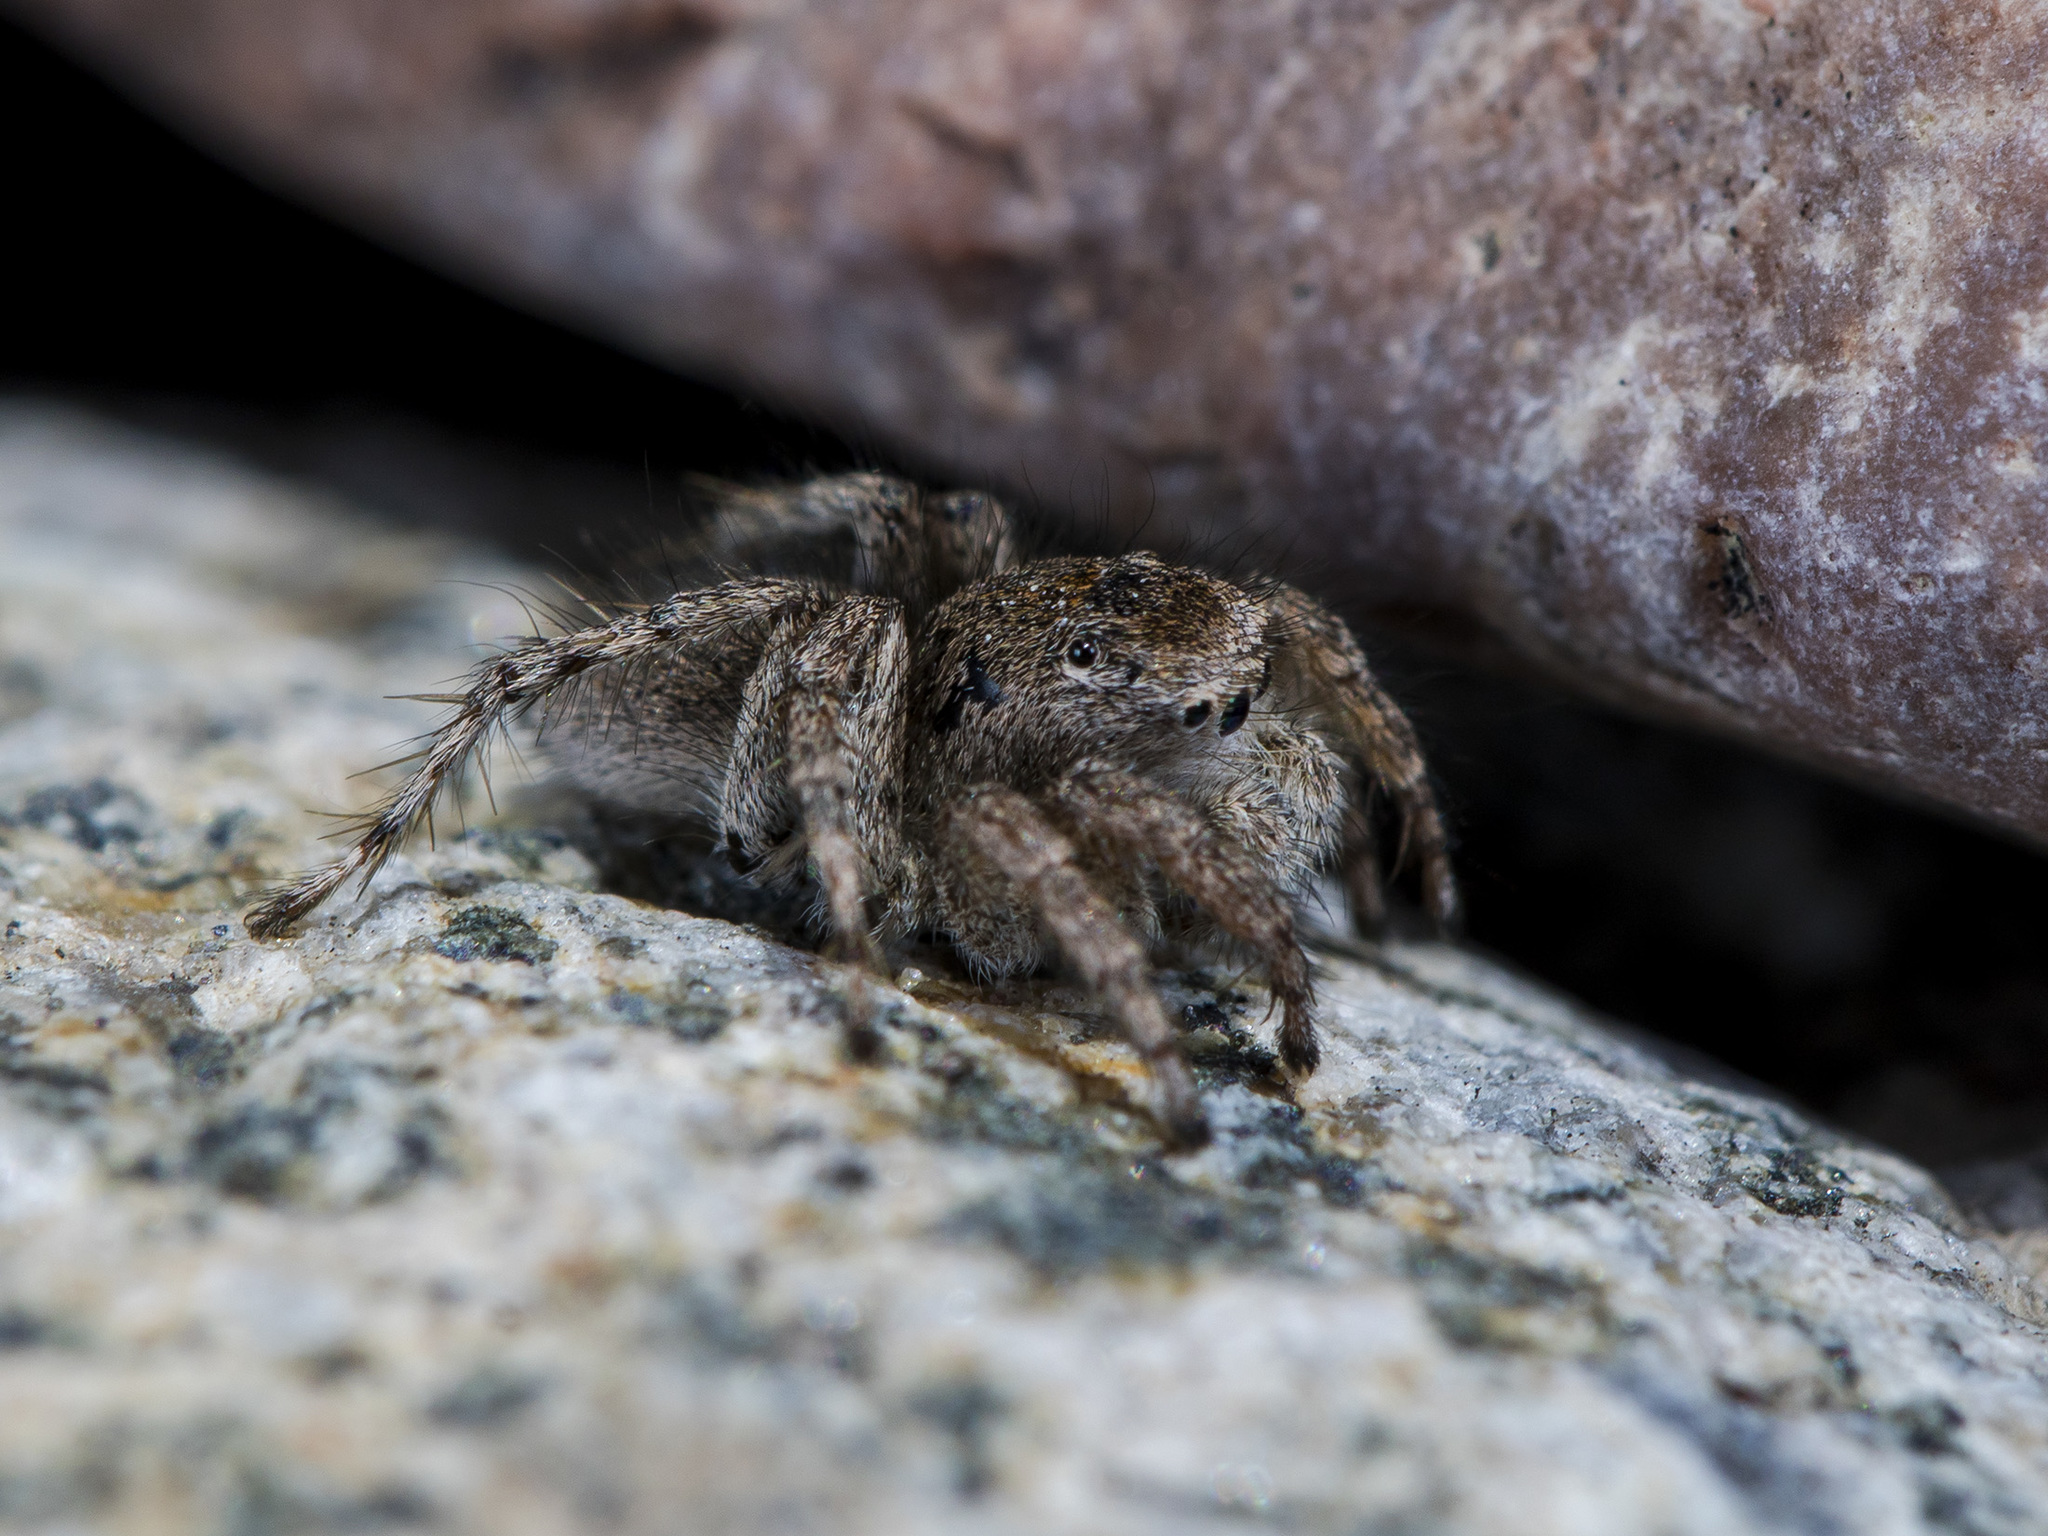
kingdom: Animalia
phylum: Arthropoda
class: Arachnida
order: Araneae
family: Salticidae
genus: Aelurillus
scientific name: Aelurillus dubatolovi
